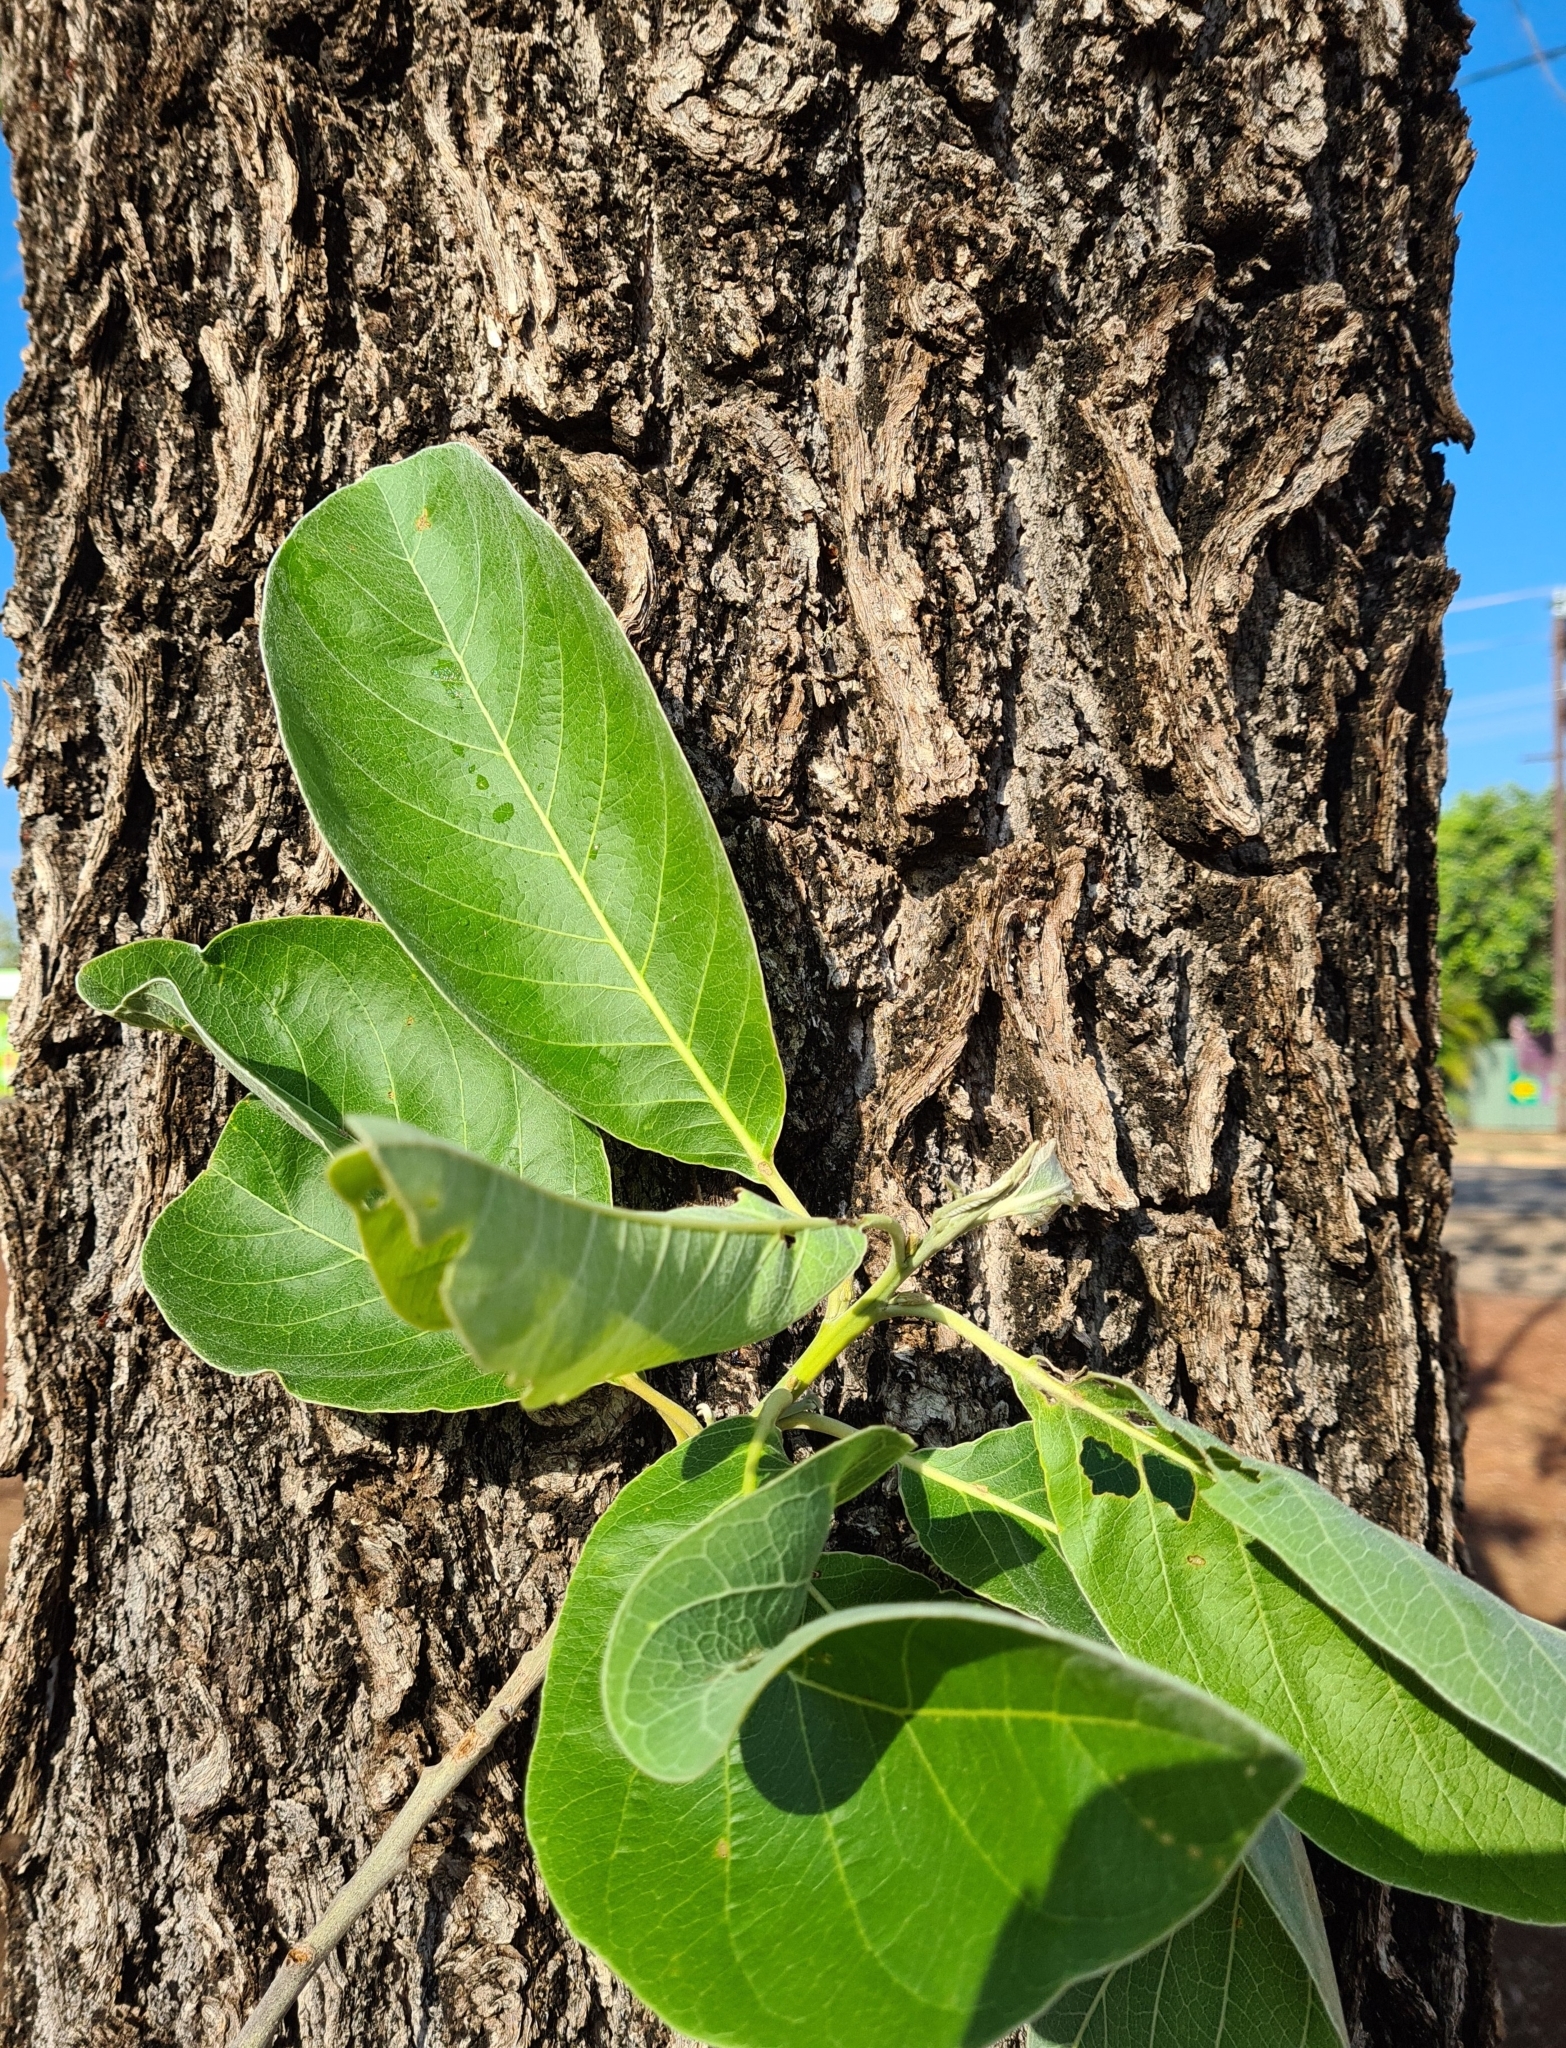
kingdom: Plantae
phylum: Tracheophyta
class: Magnoliopsida
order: Myrtales
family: Combretaceae
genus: Terminalia
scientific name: Terminalia platyphylla
